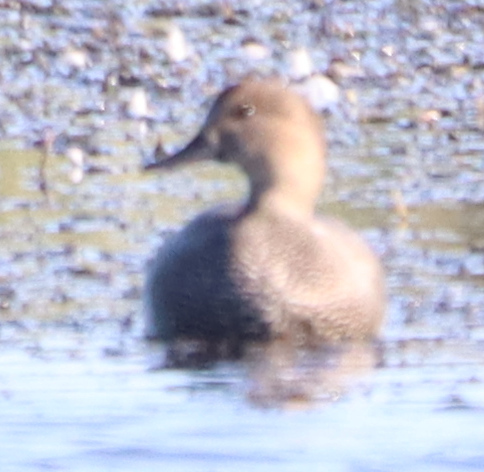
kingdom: Animalia
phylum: Chordata
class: Aves
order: Anseriformes
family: Anatidae
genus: Mareca
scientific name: Mareca strepera
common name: Gadwall
